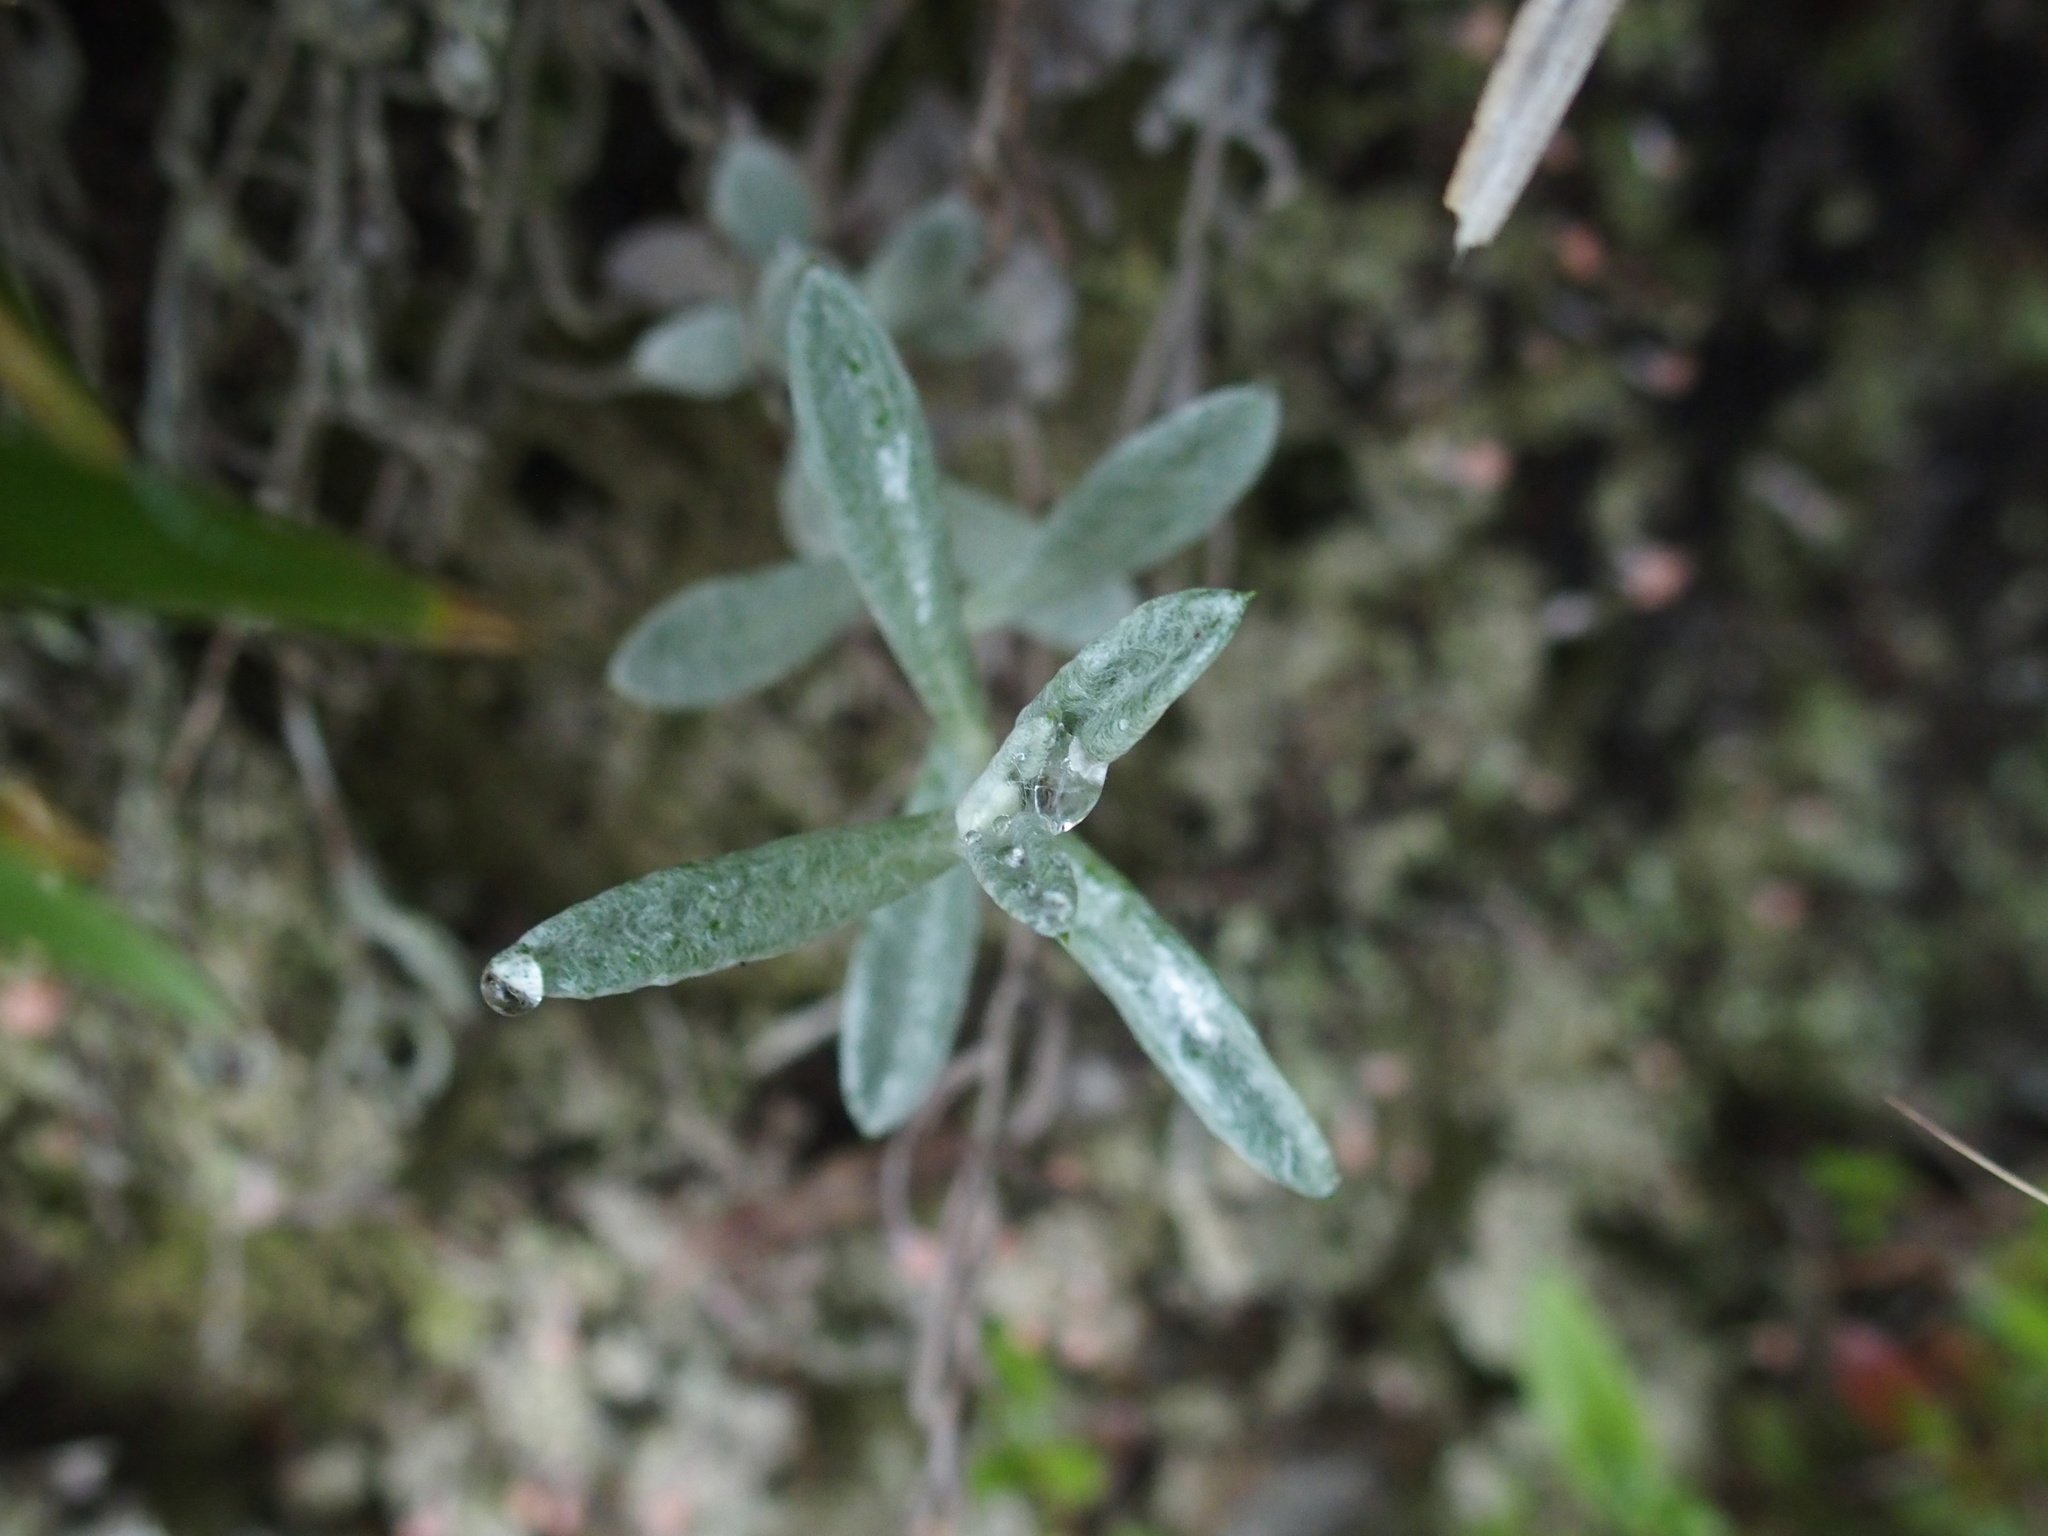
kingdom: Plantae
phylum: Tracheophyta
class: Magnoliopsida
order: Asterales
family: Asteraceae
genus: Anaphalis
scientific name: Anaphalis morrisonicola
